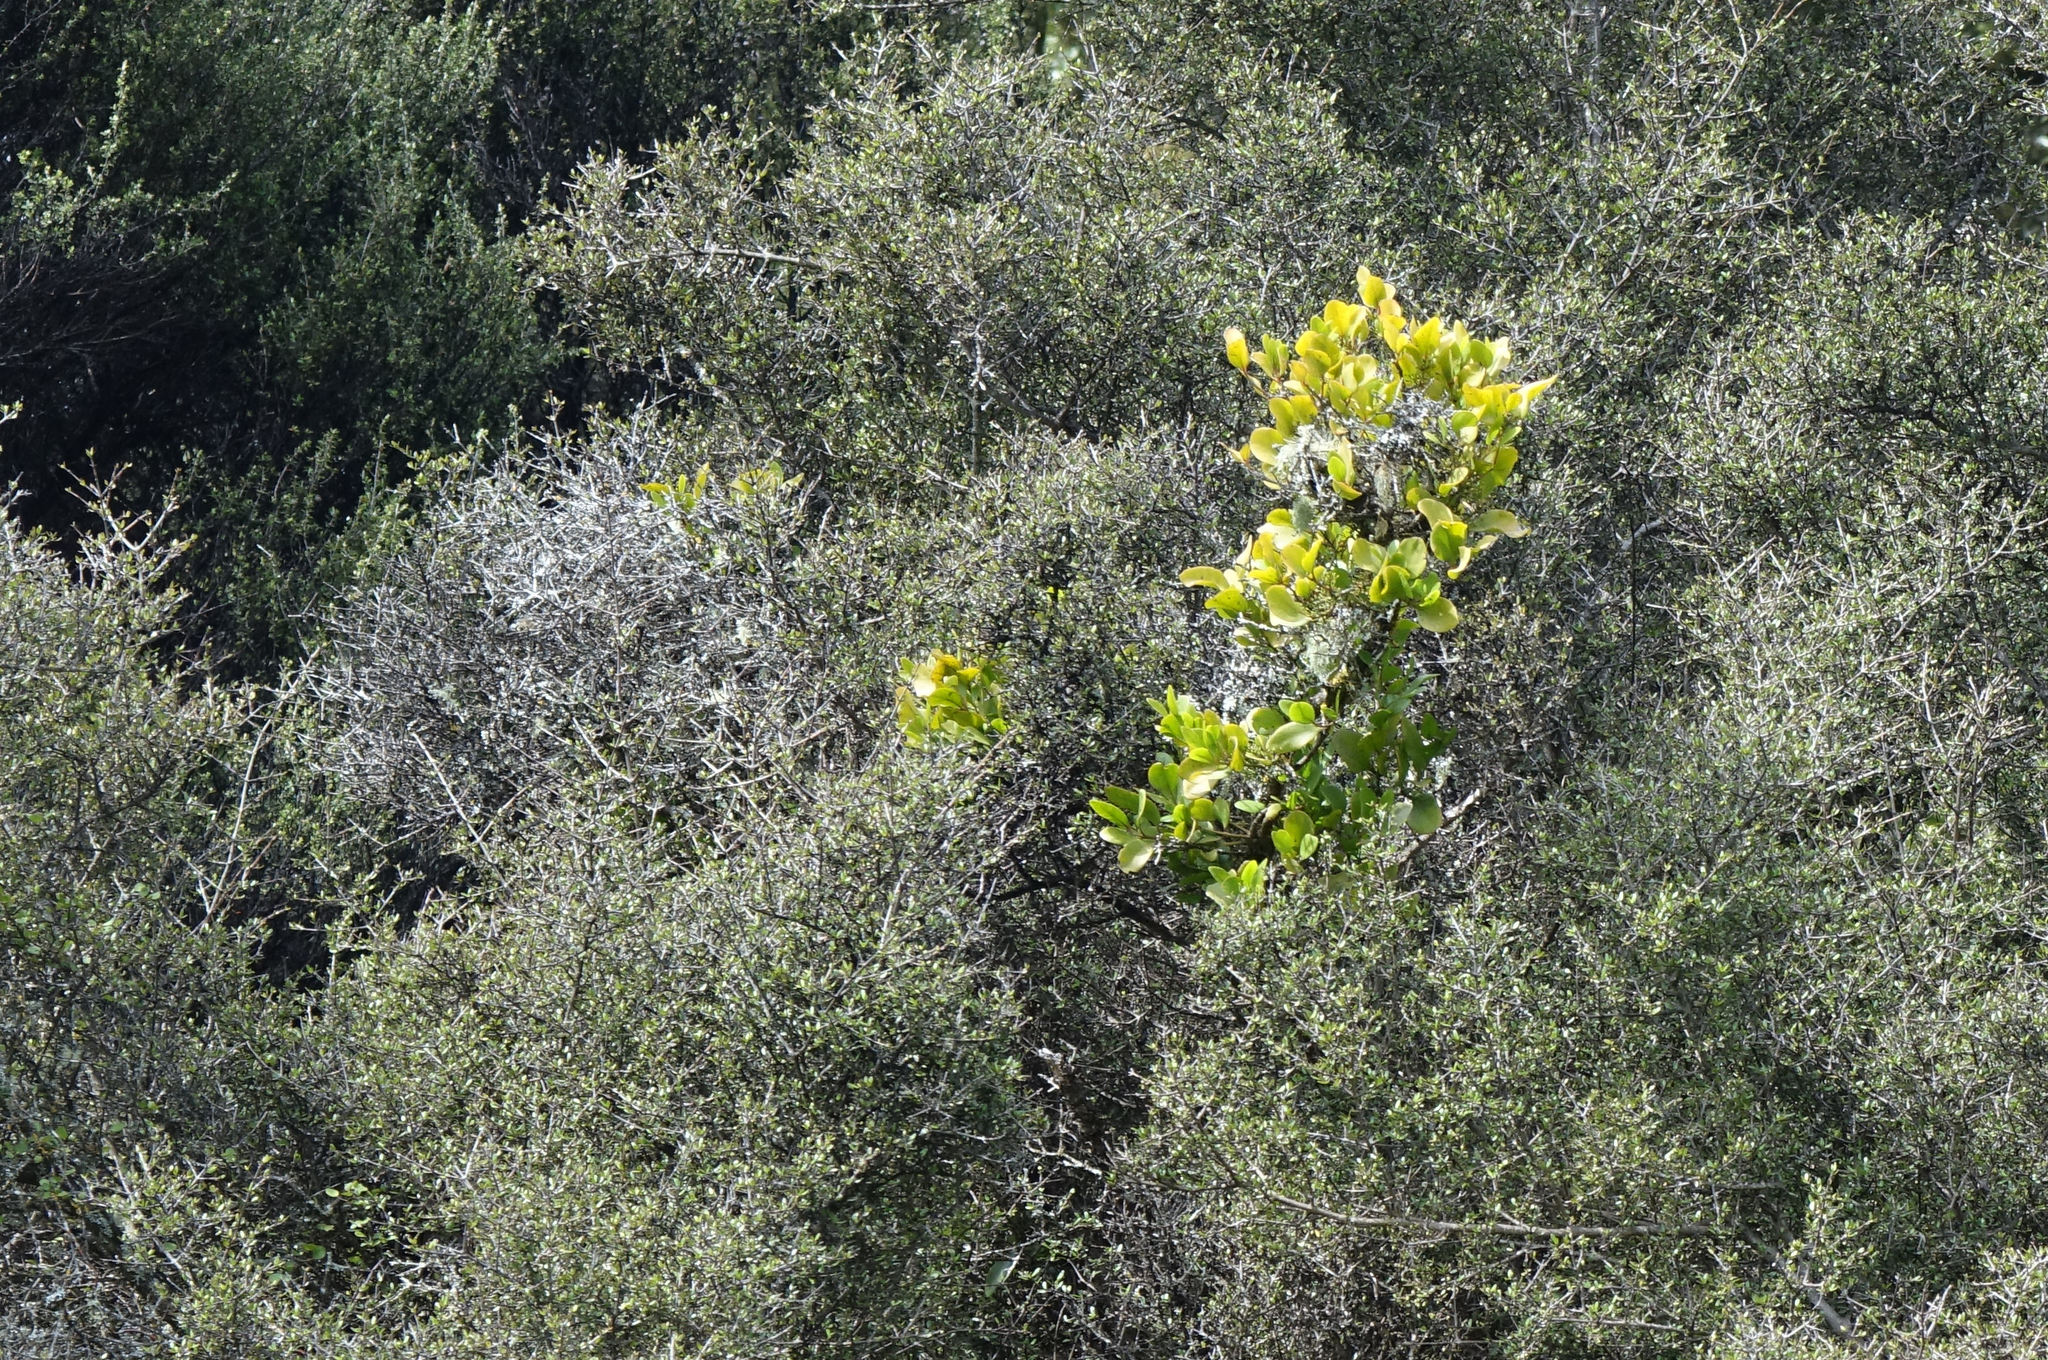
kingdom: Plantae
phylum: Tracheophyta
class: Magnoliopsida
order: Santalales
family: Loranthaceae
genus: Ileostylus
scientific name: Ileostylus micranthus
